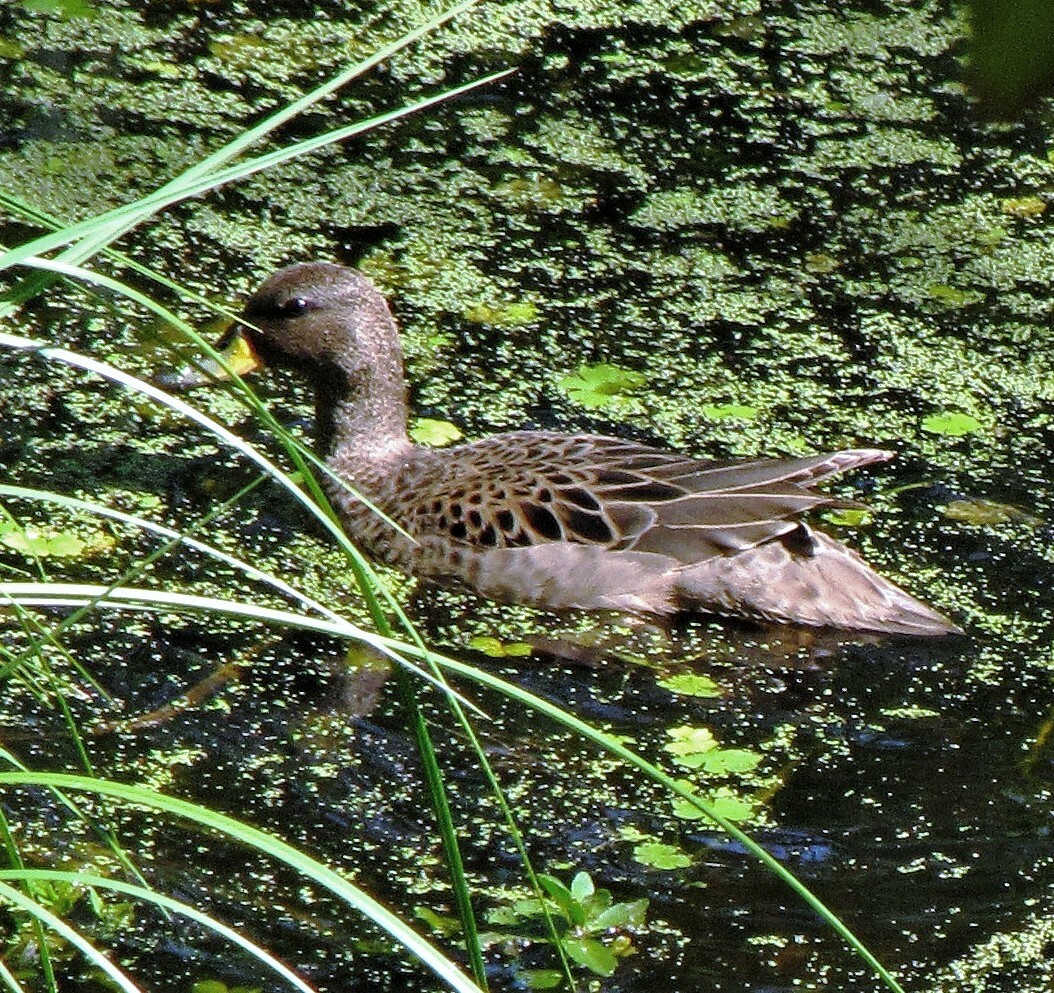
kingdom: Animalia
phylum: Chordata
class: Aves
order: Anseriformes
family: Anatidae
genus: Anas
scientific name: Anas flavirostris
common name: Yellow-billed teal
